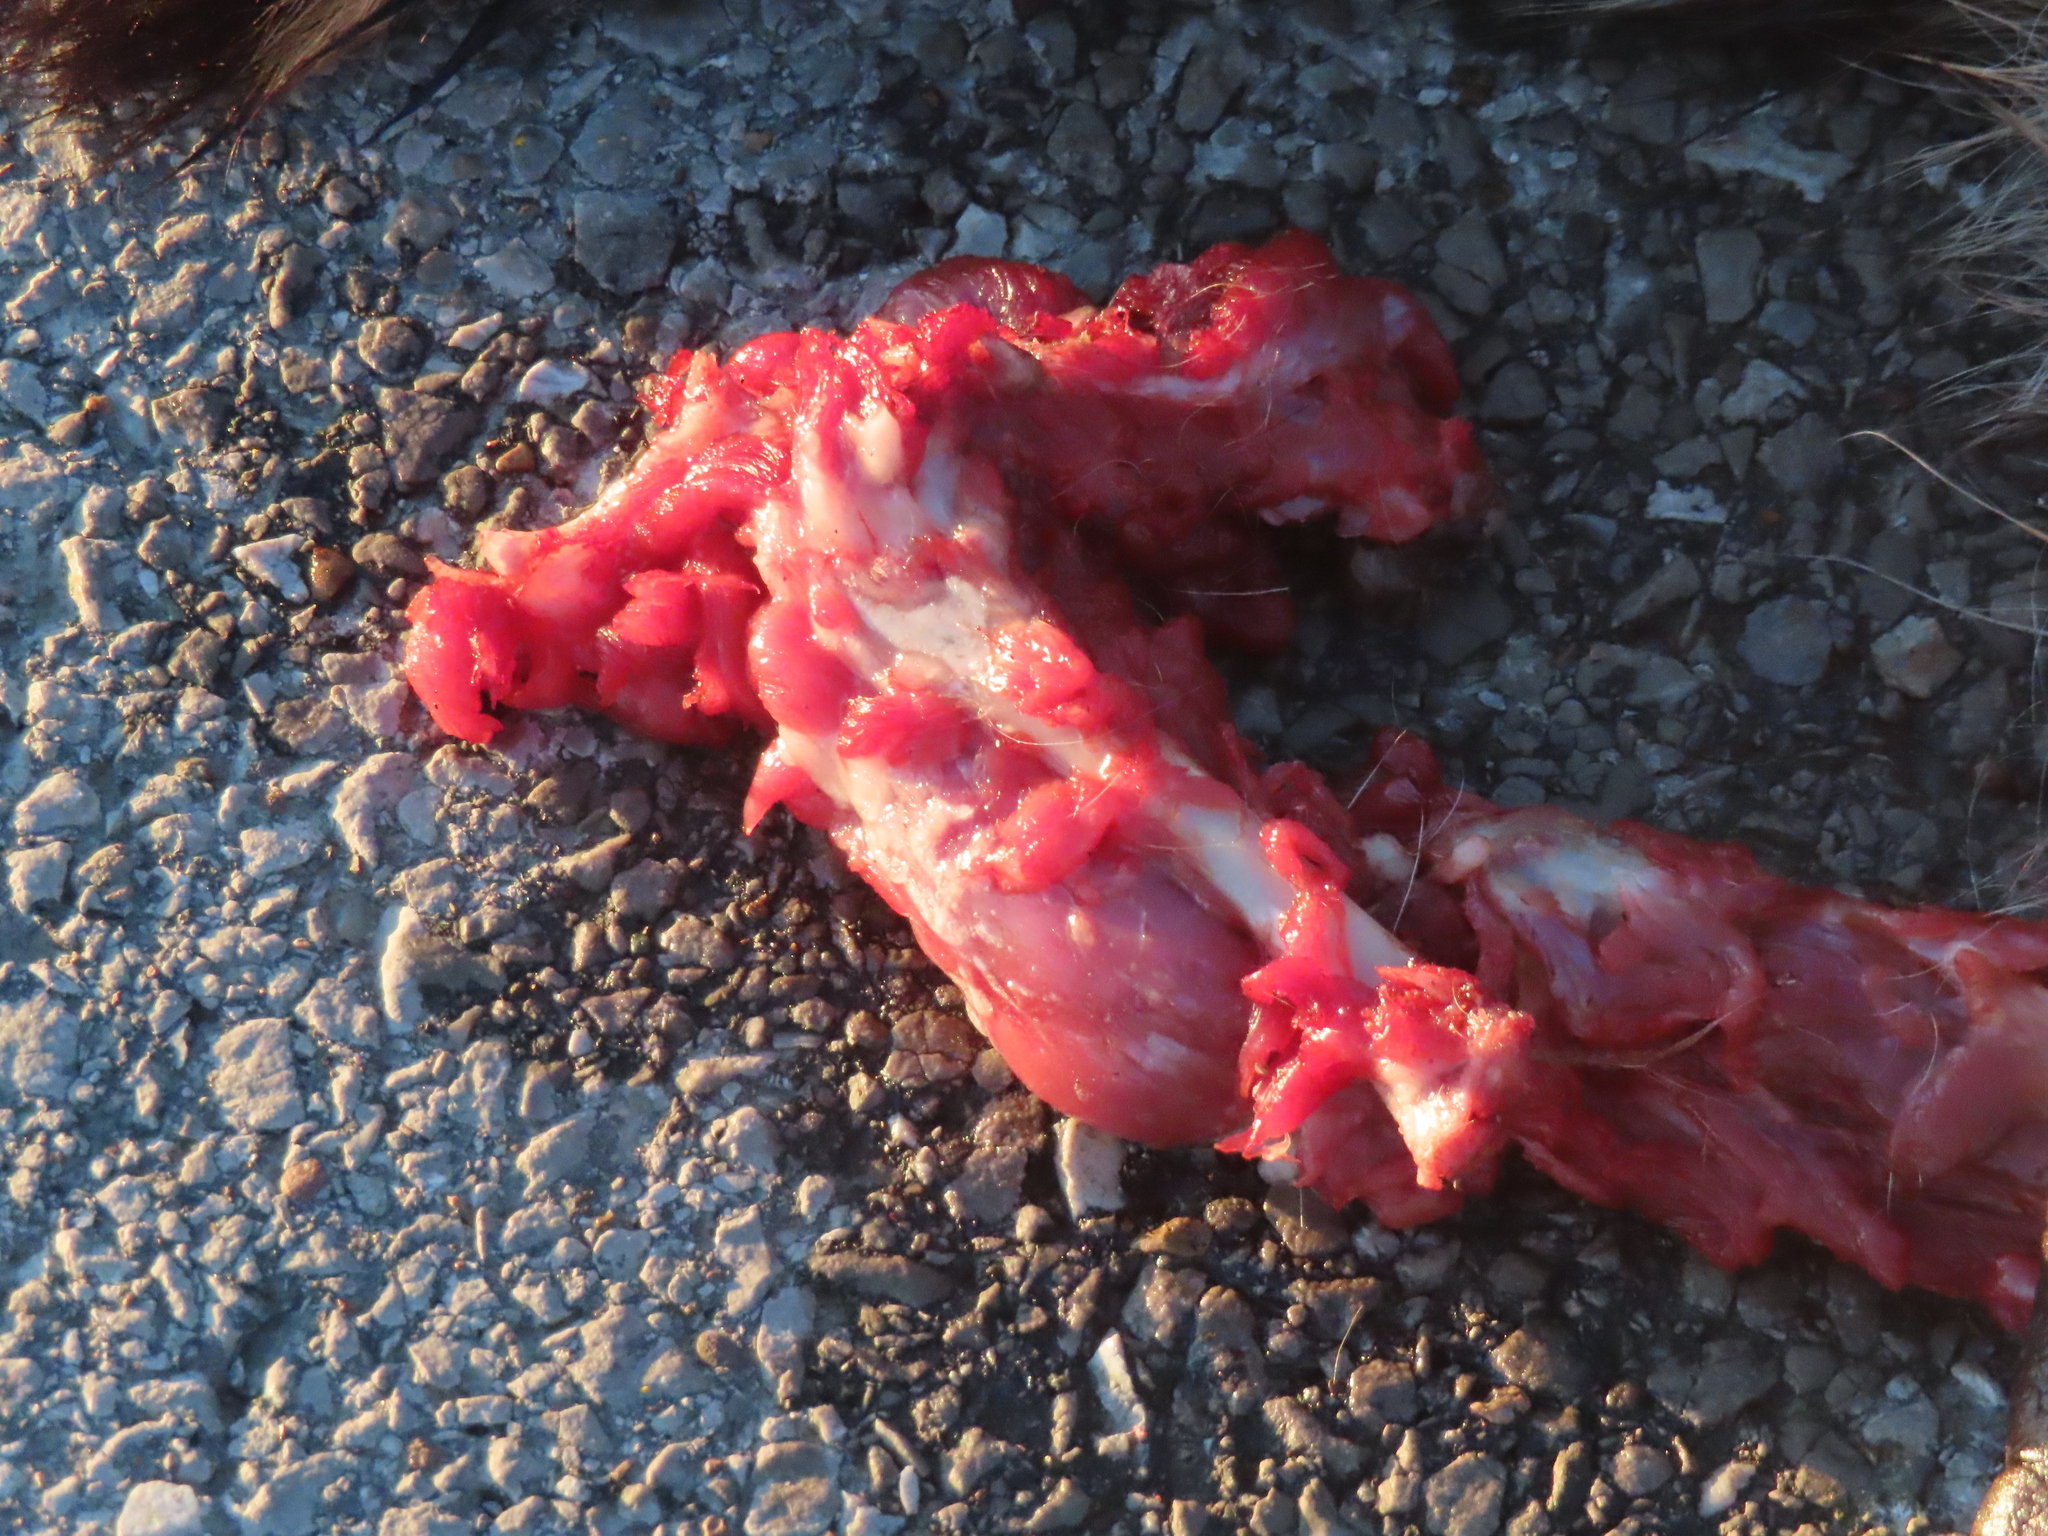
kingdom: Animalia
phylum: Chordata
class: Mammalia
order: Carnivora
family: Procyonidae
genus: Procyon
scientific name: Procyon lotor
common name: Raccoon
